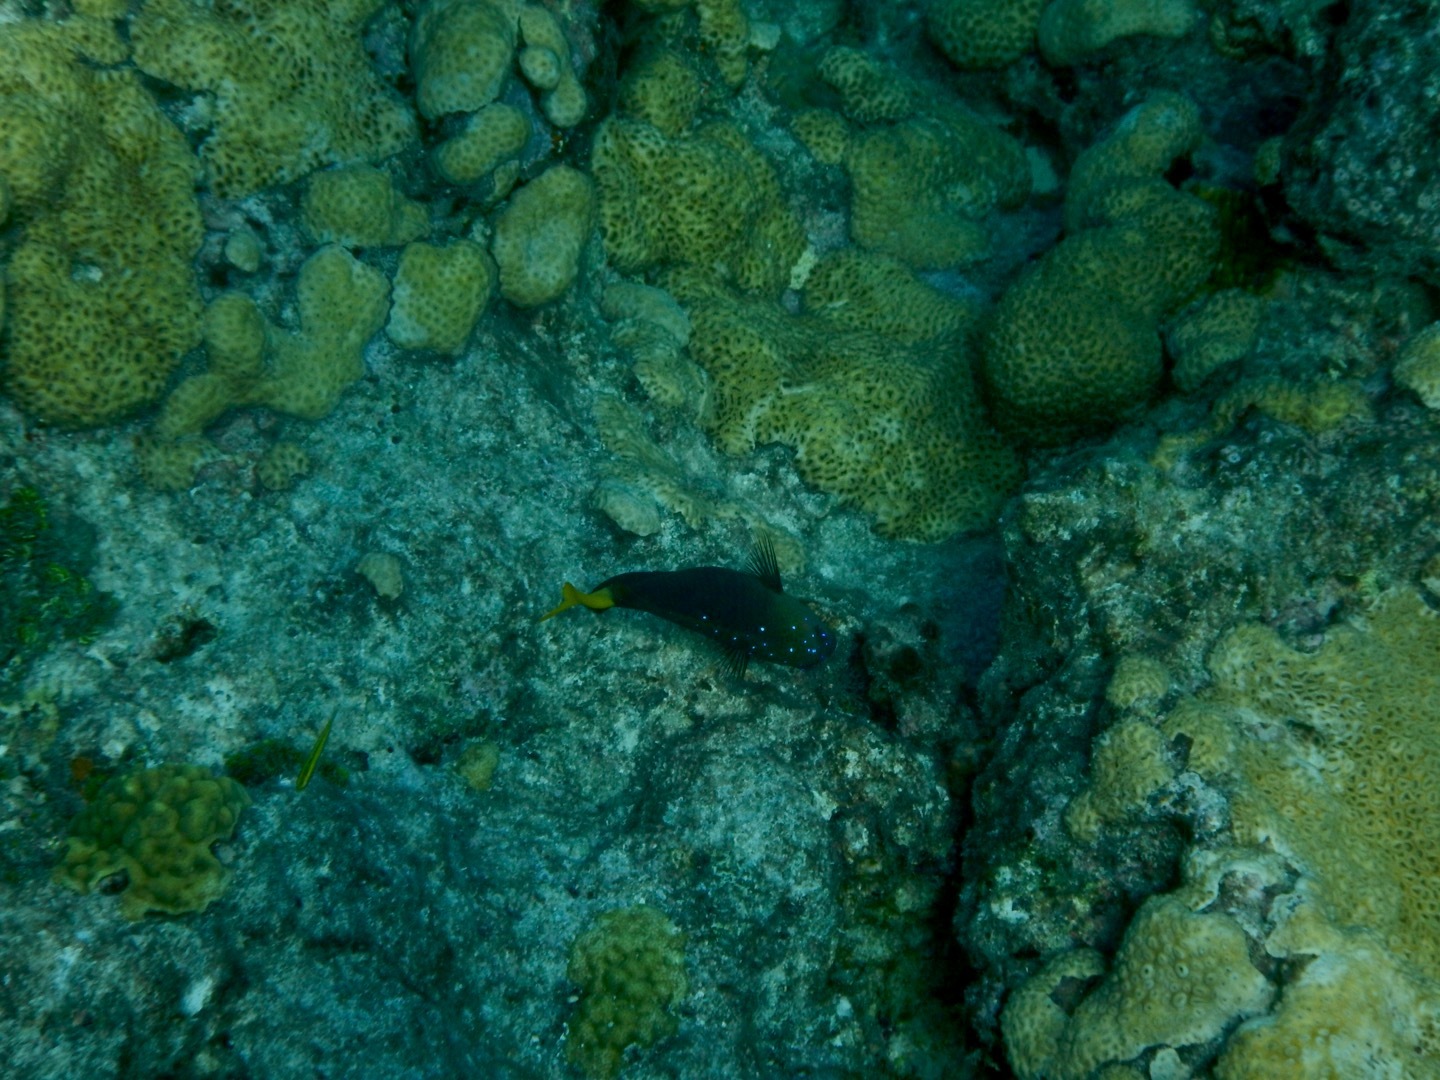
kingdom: Animalia
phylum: Chordata
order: Perciformes
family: Pomacentridae
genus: Microspathodon
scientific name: Microspathodon chrysurus
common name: Yellowtail damselfish
